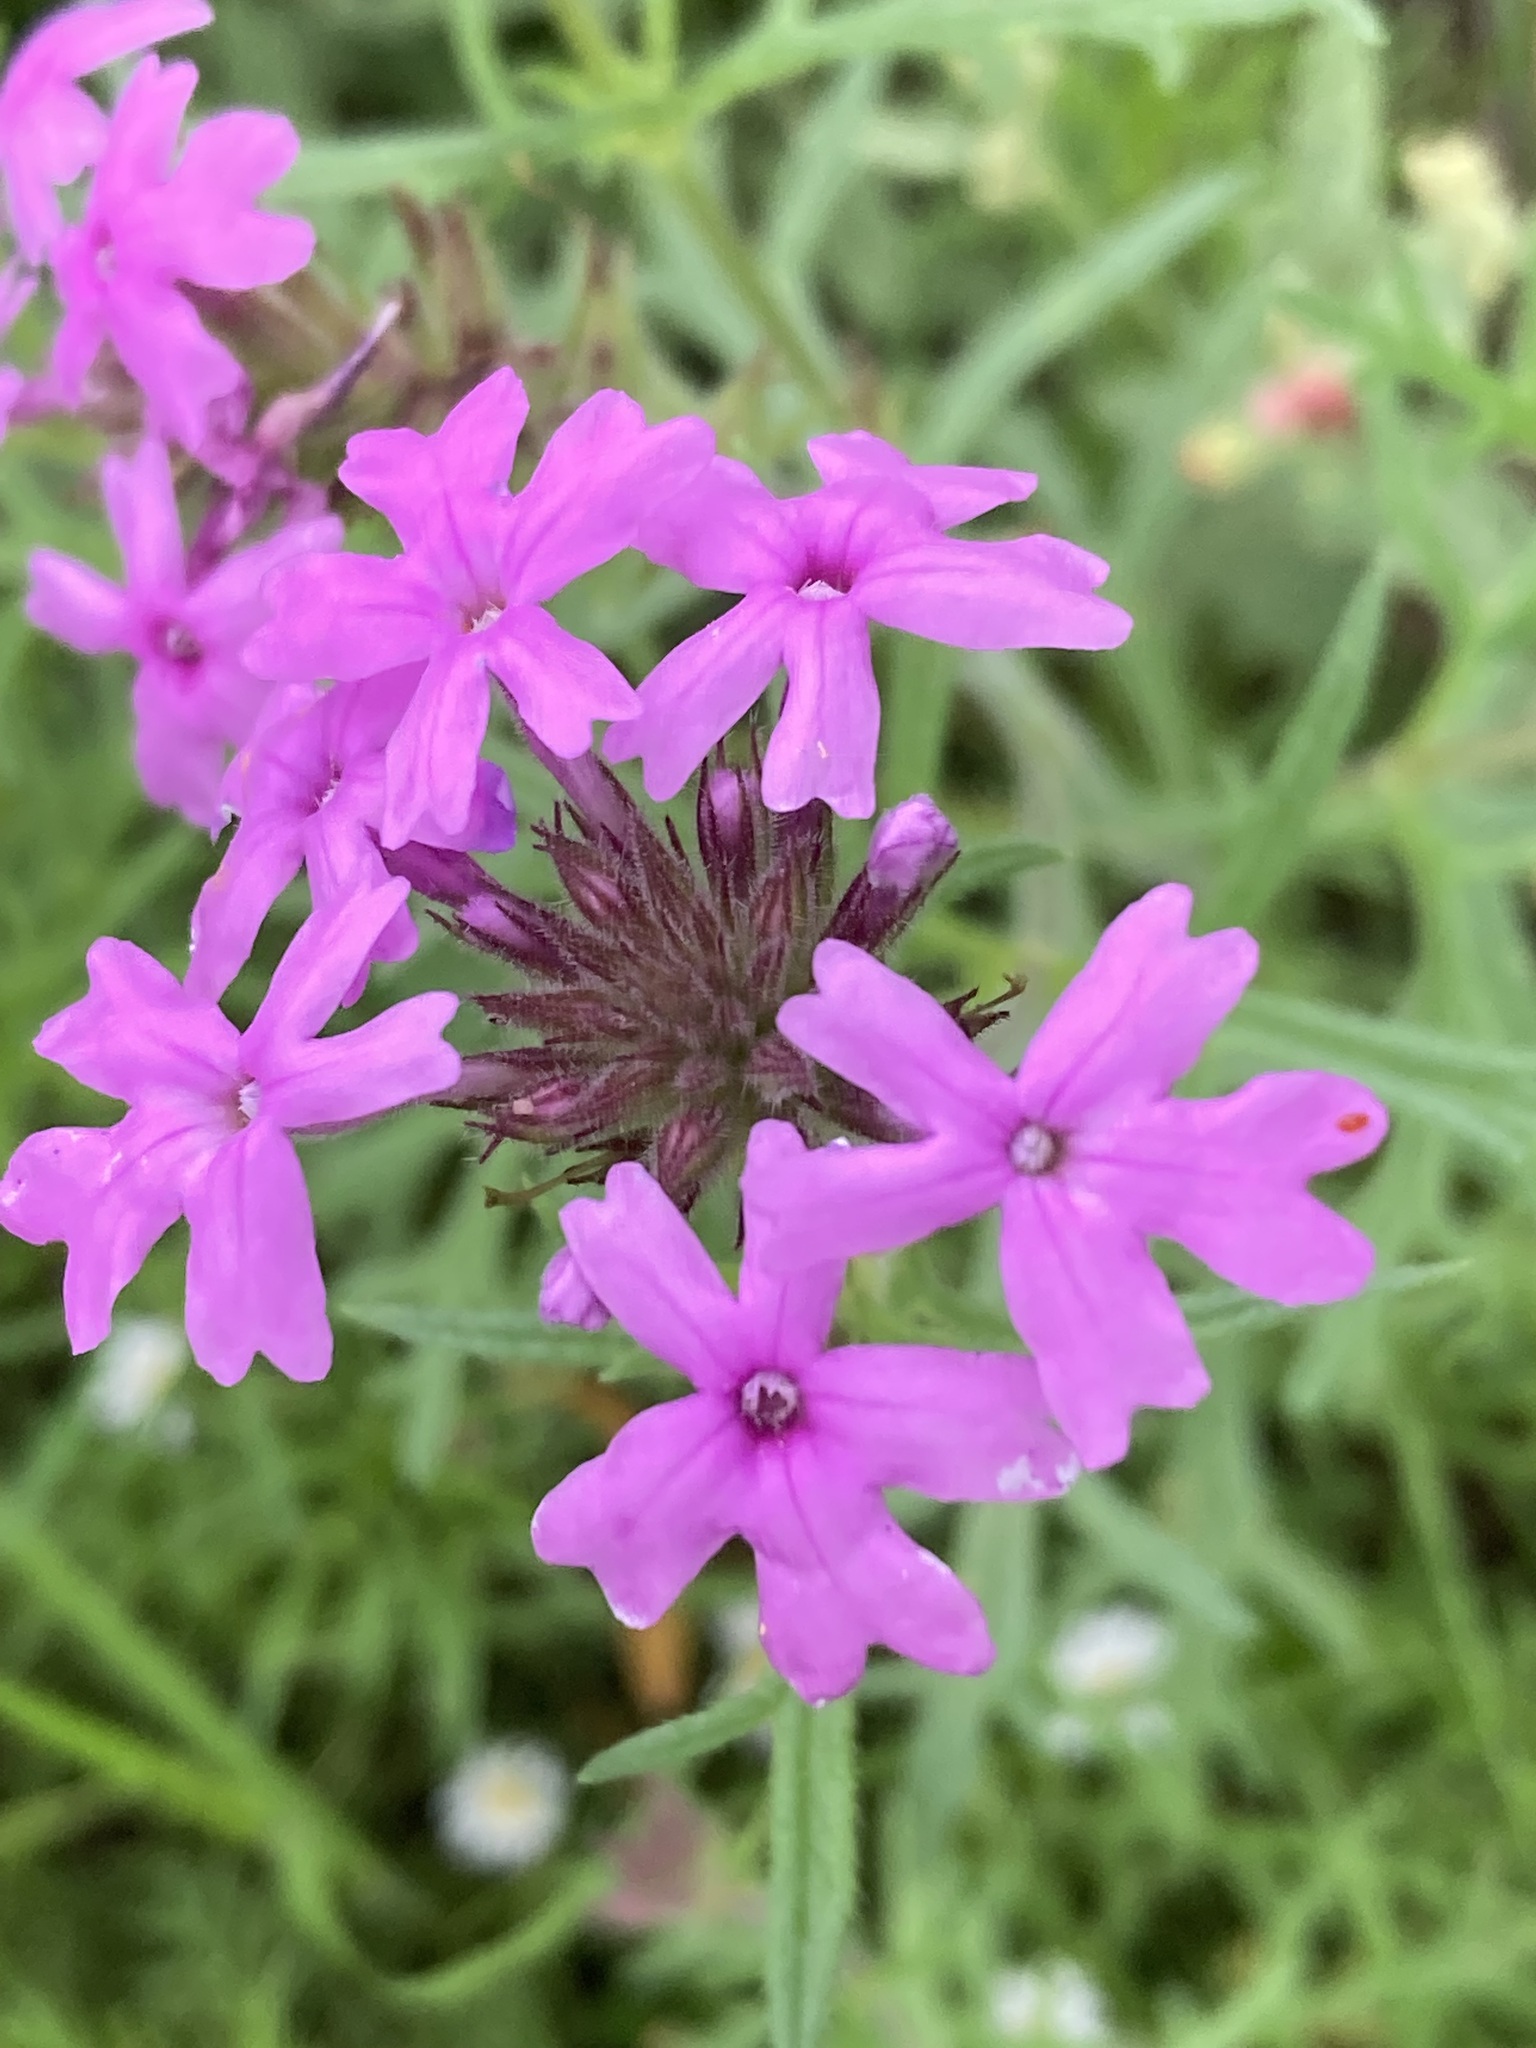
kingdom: Plantae
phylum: Tracheophyta
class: Magnoliopsida
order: Lamiales
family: Verbenaceae
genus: Verbena
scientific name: Verbena bipinnatifida
